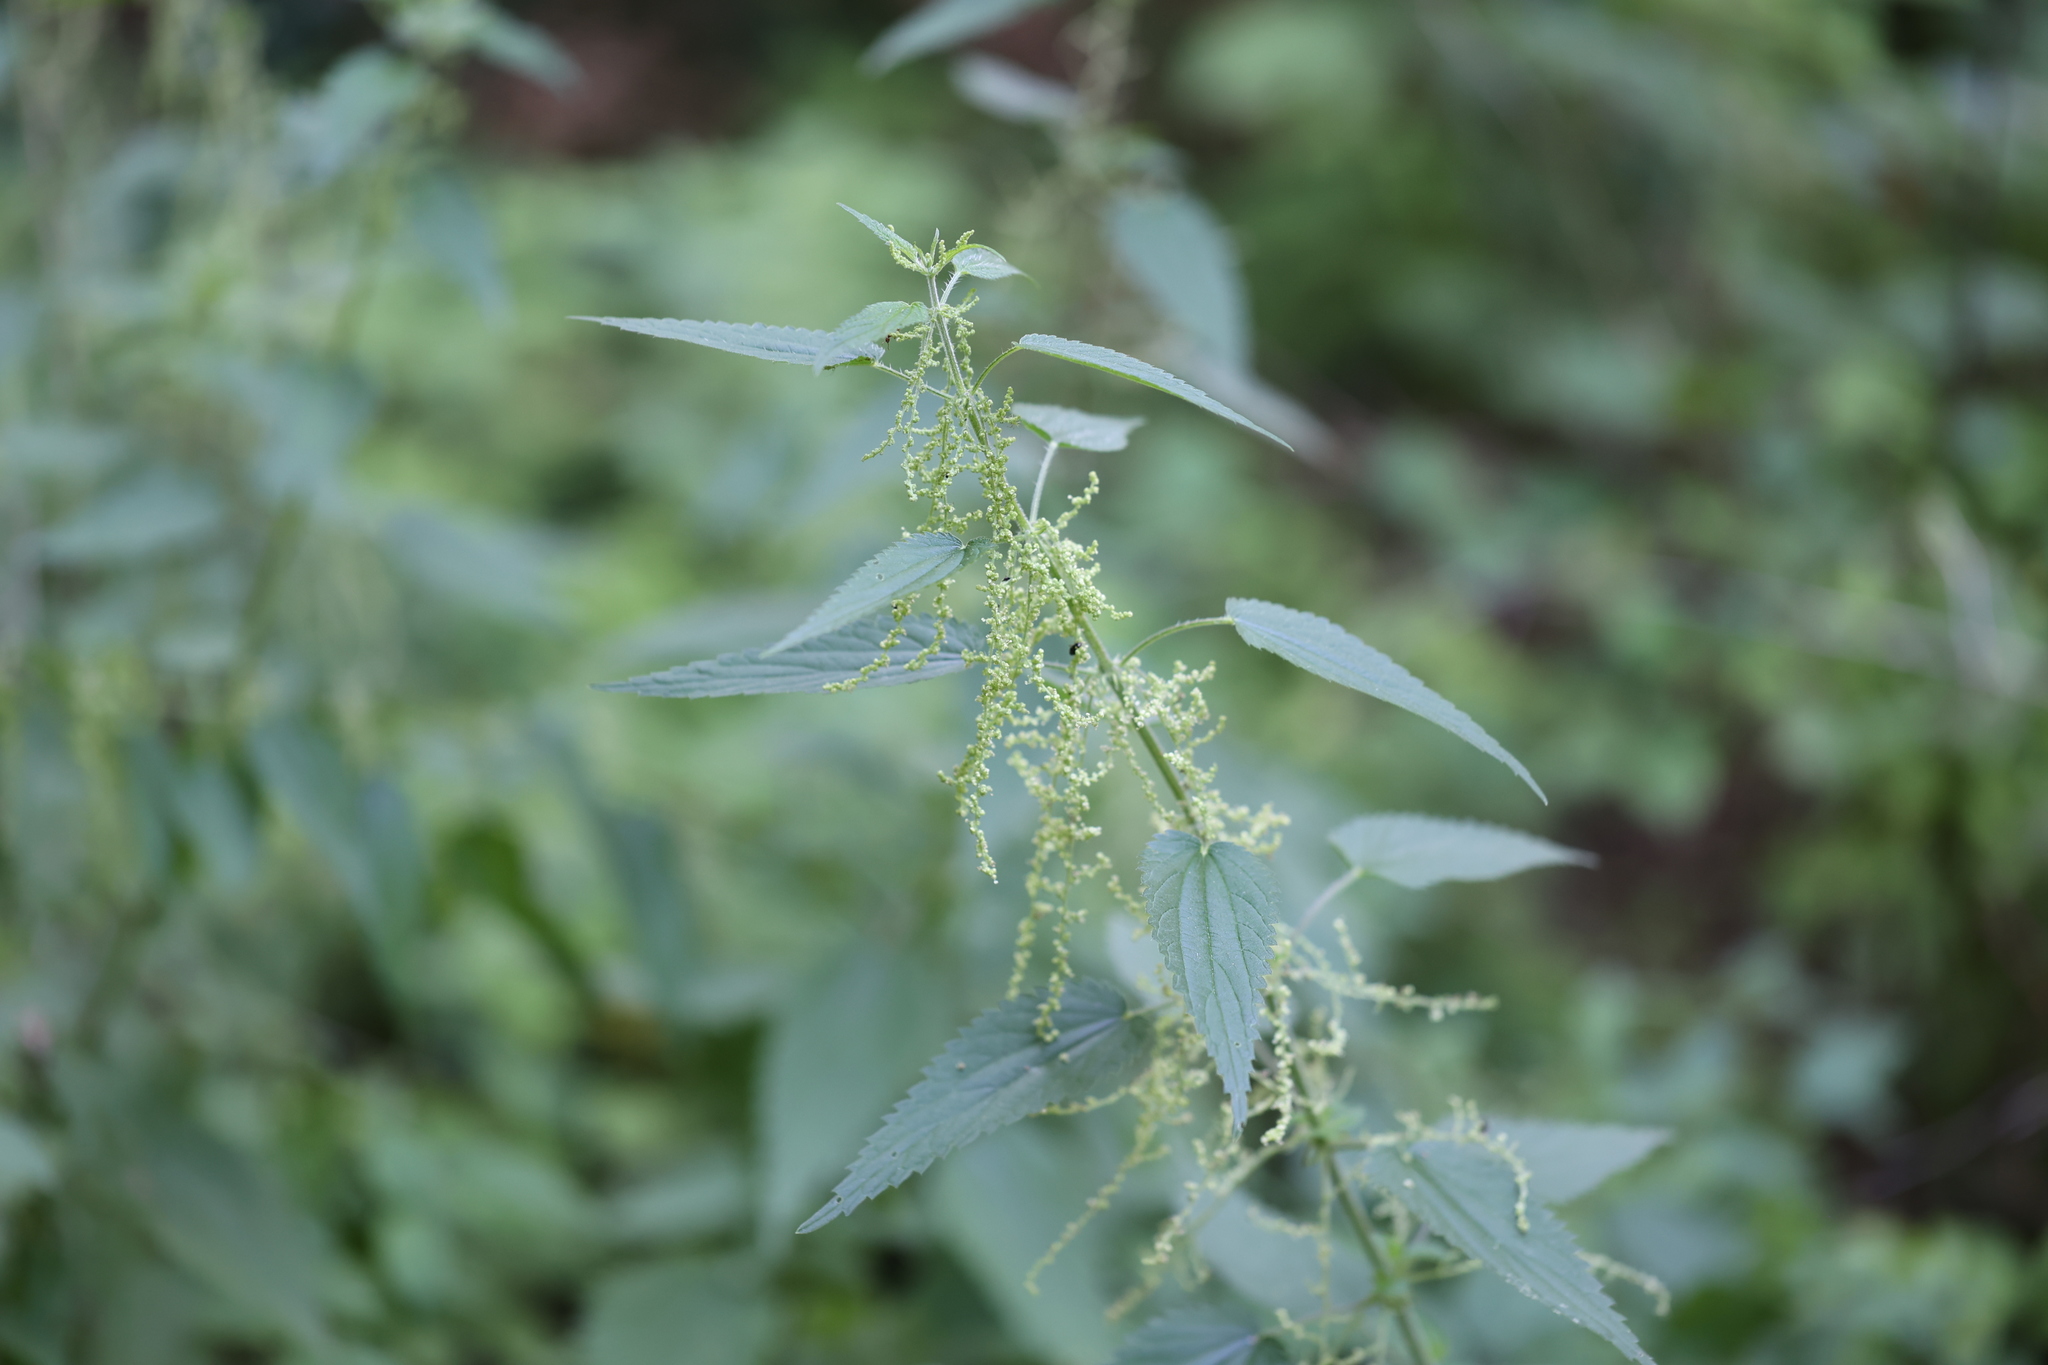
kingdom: Plantae
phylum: Tracheophyta
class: Magnoliopsida
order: Rosales
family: Urticaceae
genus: Urtica
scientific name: Urtica dioica
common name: Common nettle
